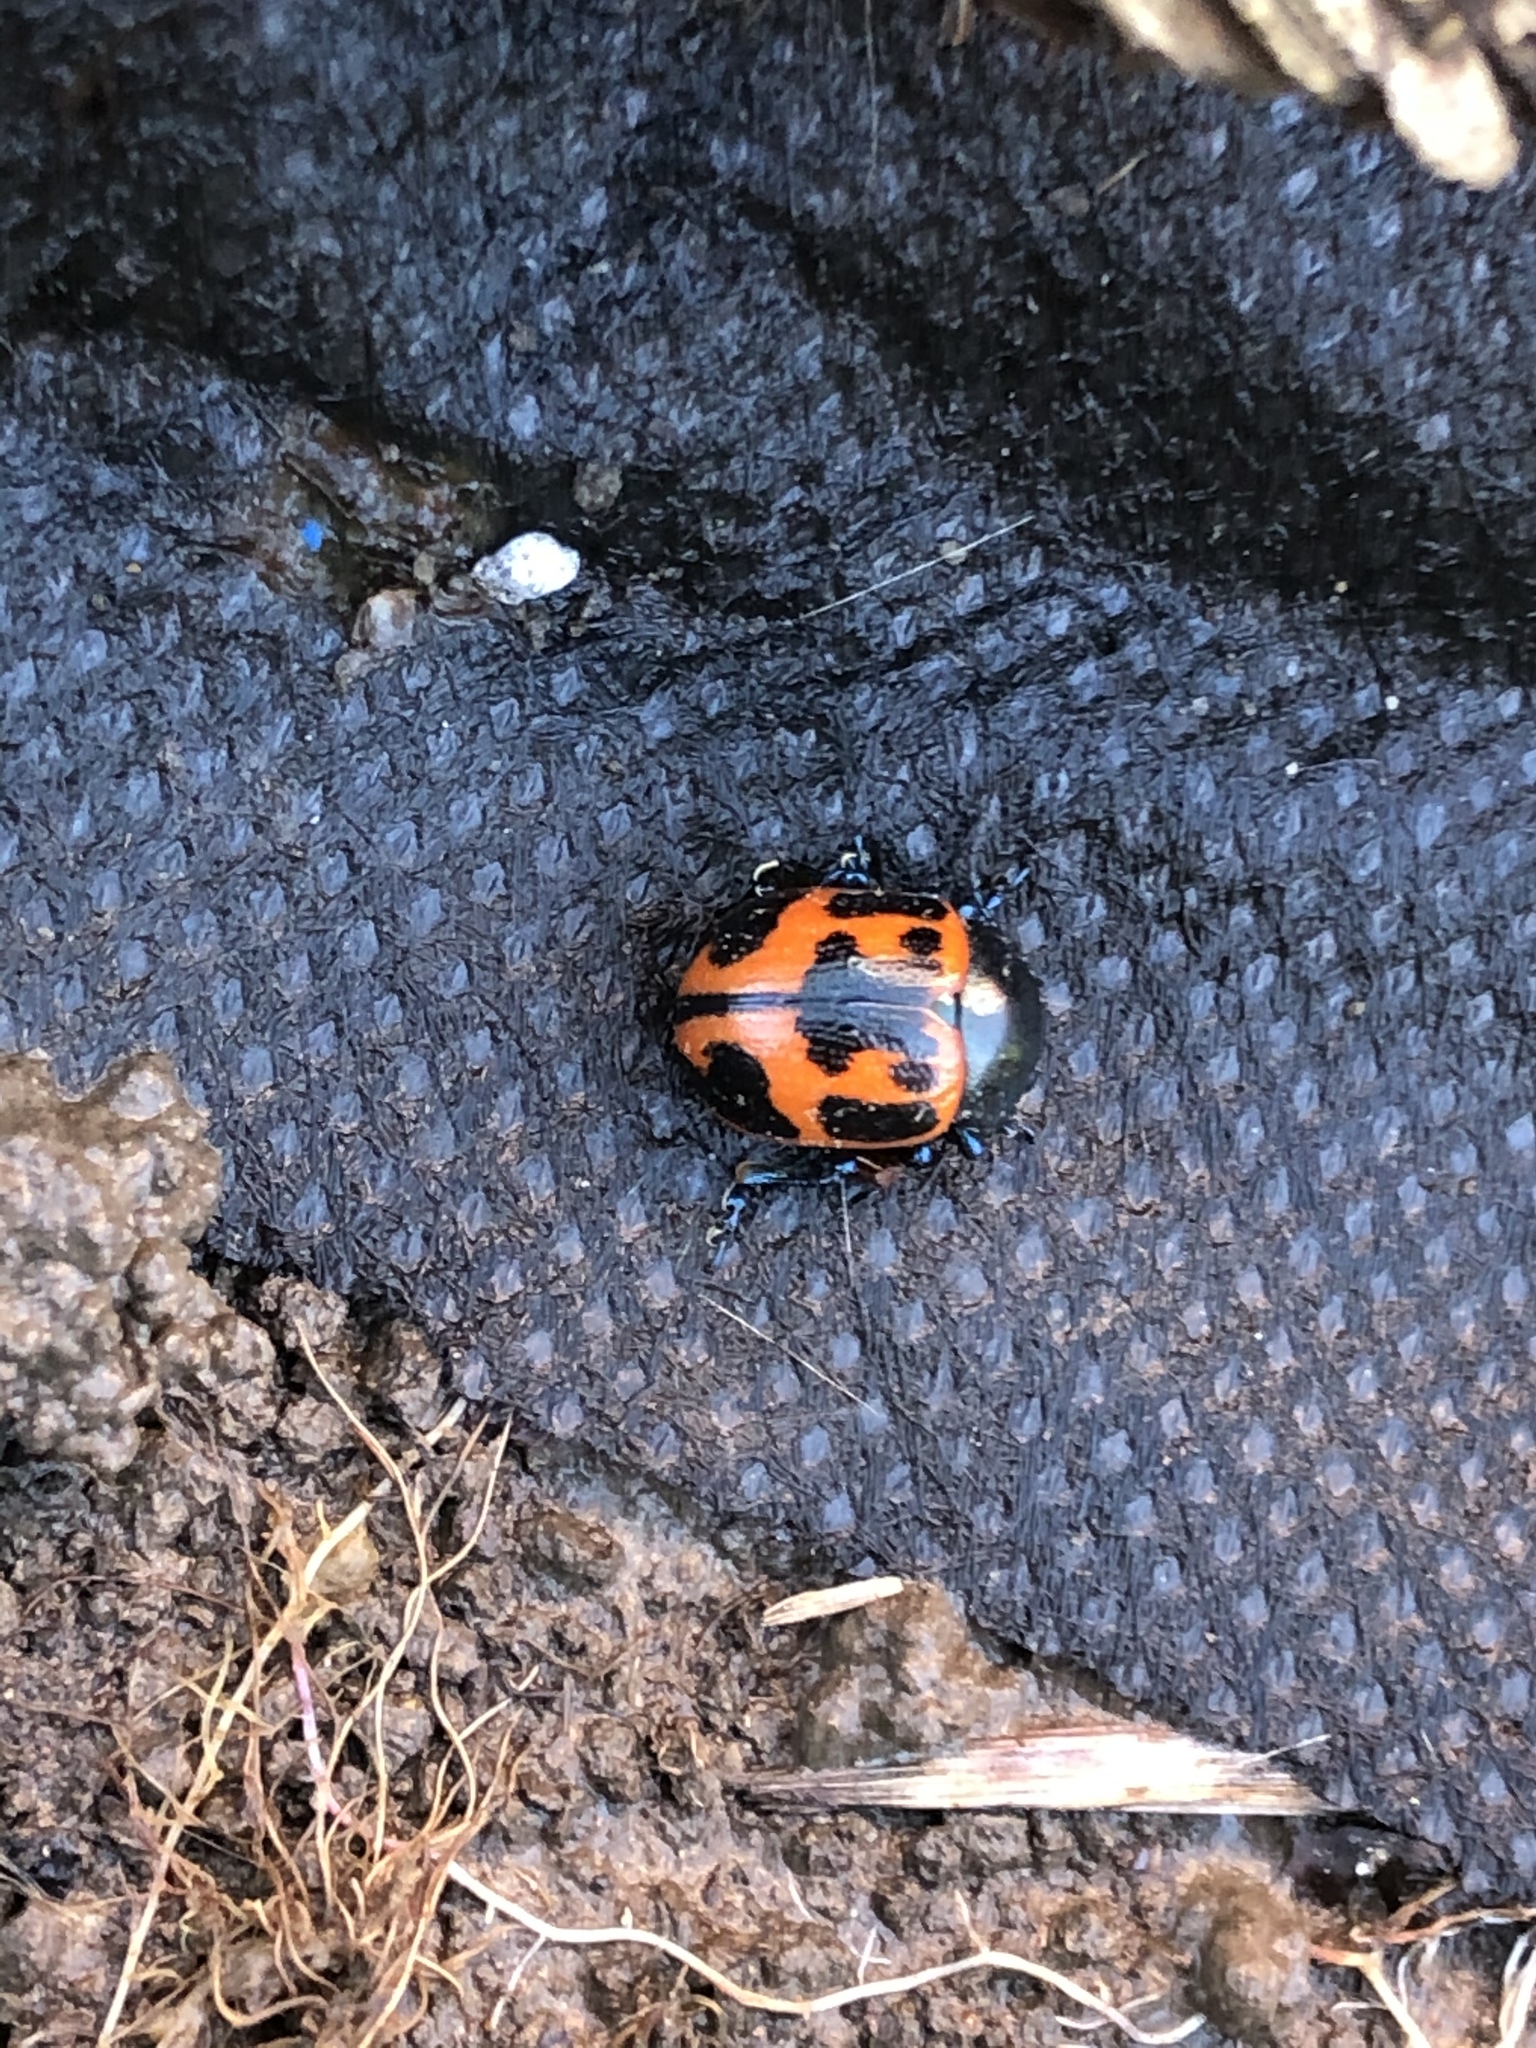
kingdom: Animalia
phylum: Arthropoda
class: Insecta
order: Coleoptera
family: Chrysomelidae
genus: Labidomera
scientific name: Labidomera clivicollis
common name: Swamp milkweed leaf beetle
